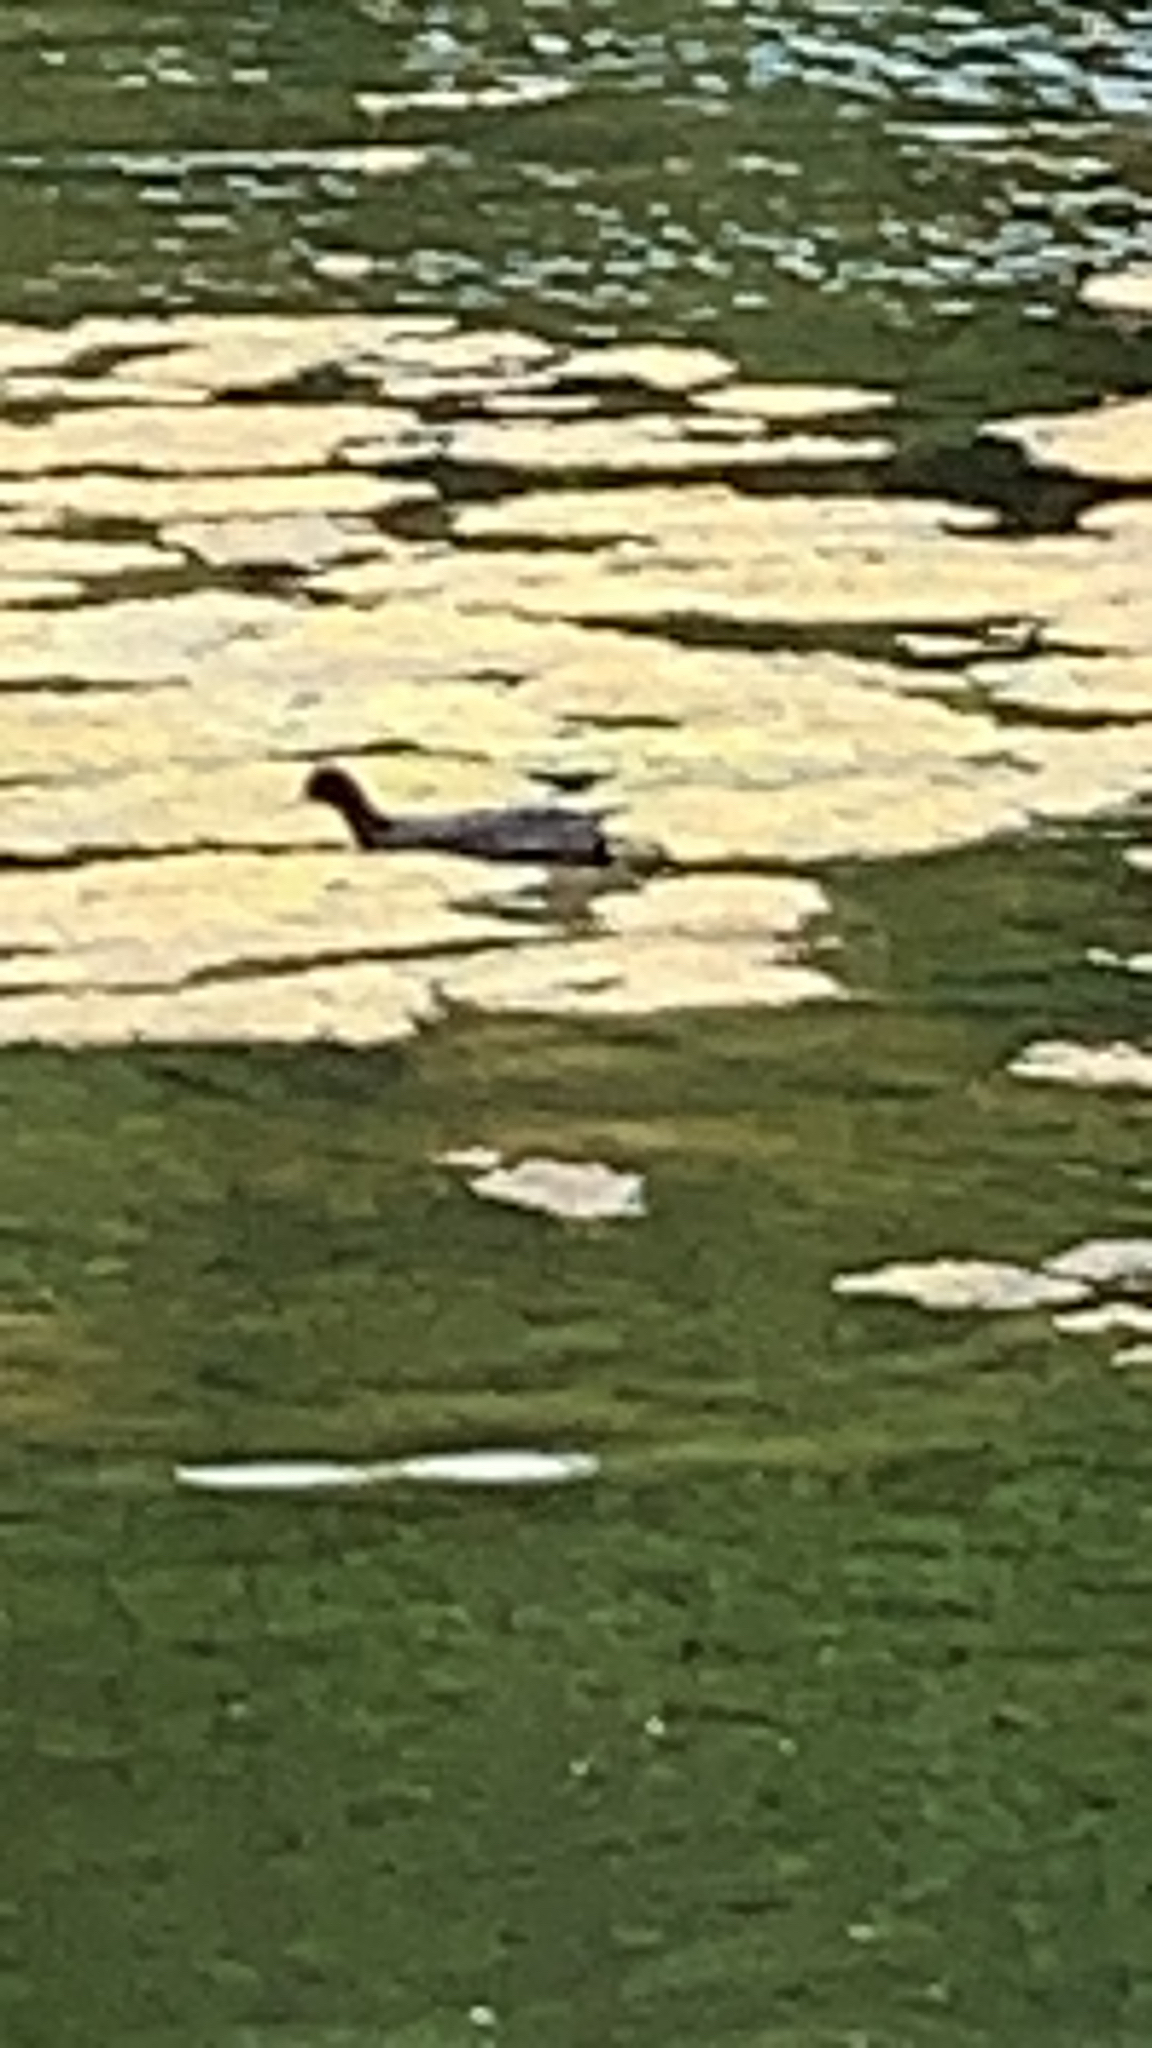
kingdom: Animalia
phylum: Chordata
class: Aves
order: Gruiformes
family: Rallidae
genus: Fulica
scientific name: Fulica atra
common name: Eurasian coot
